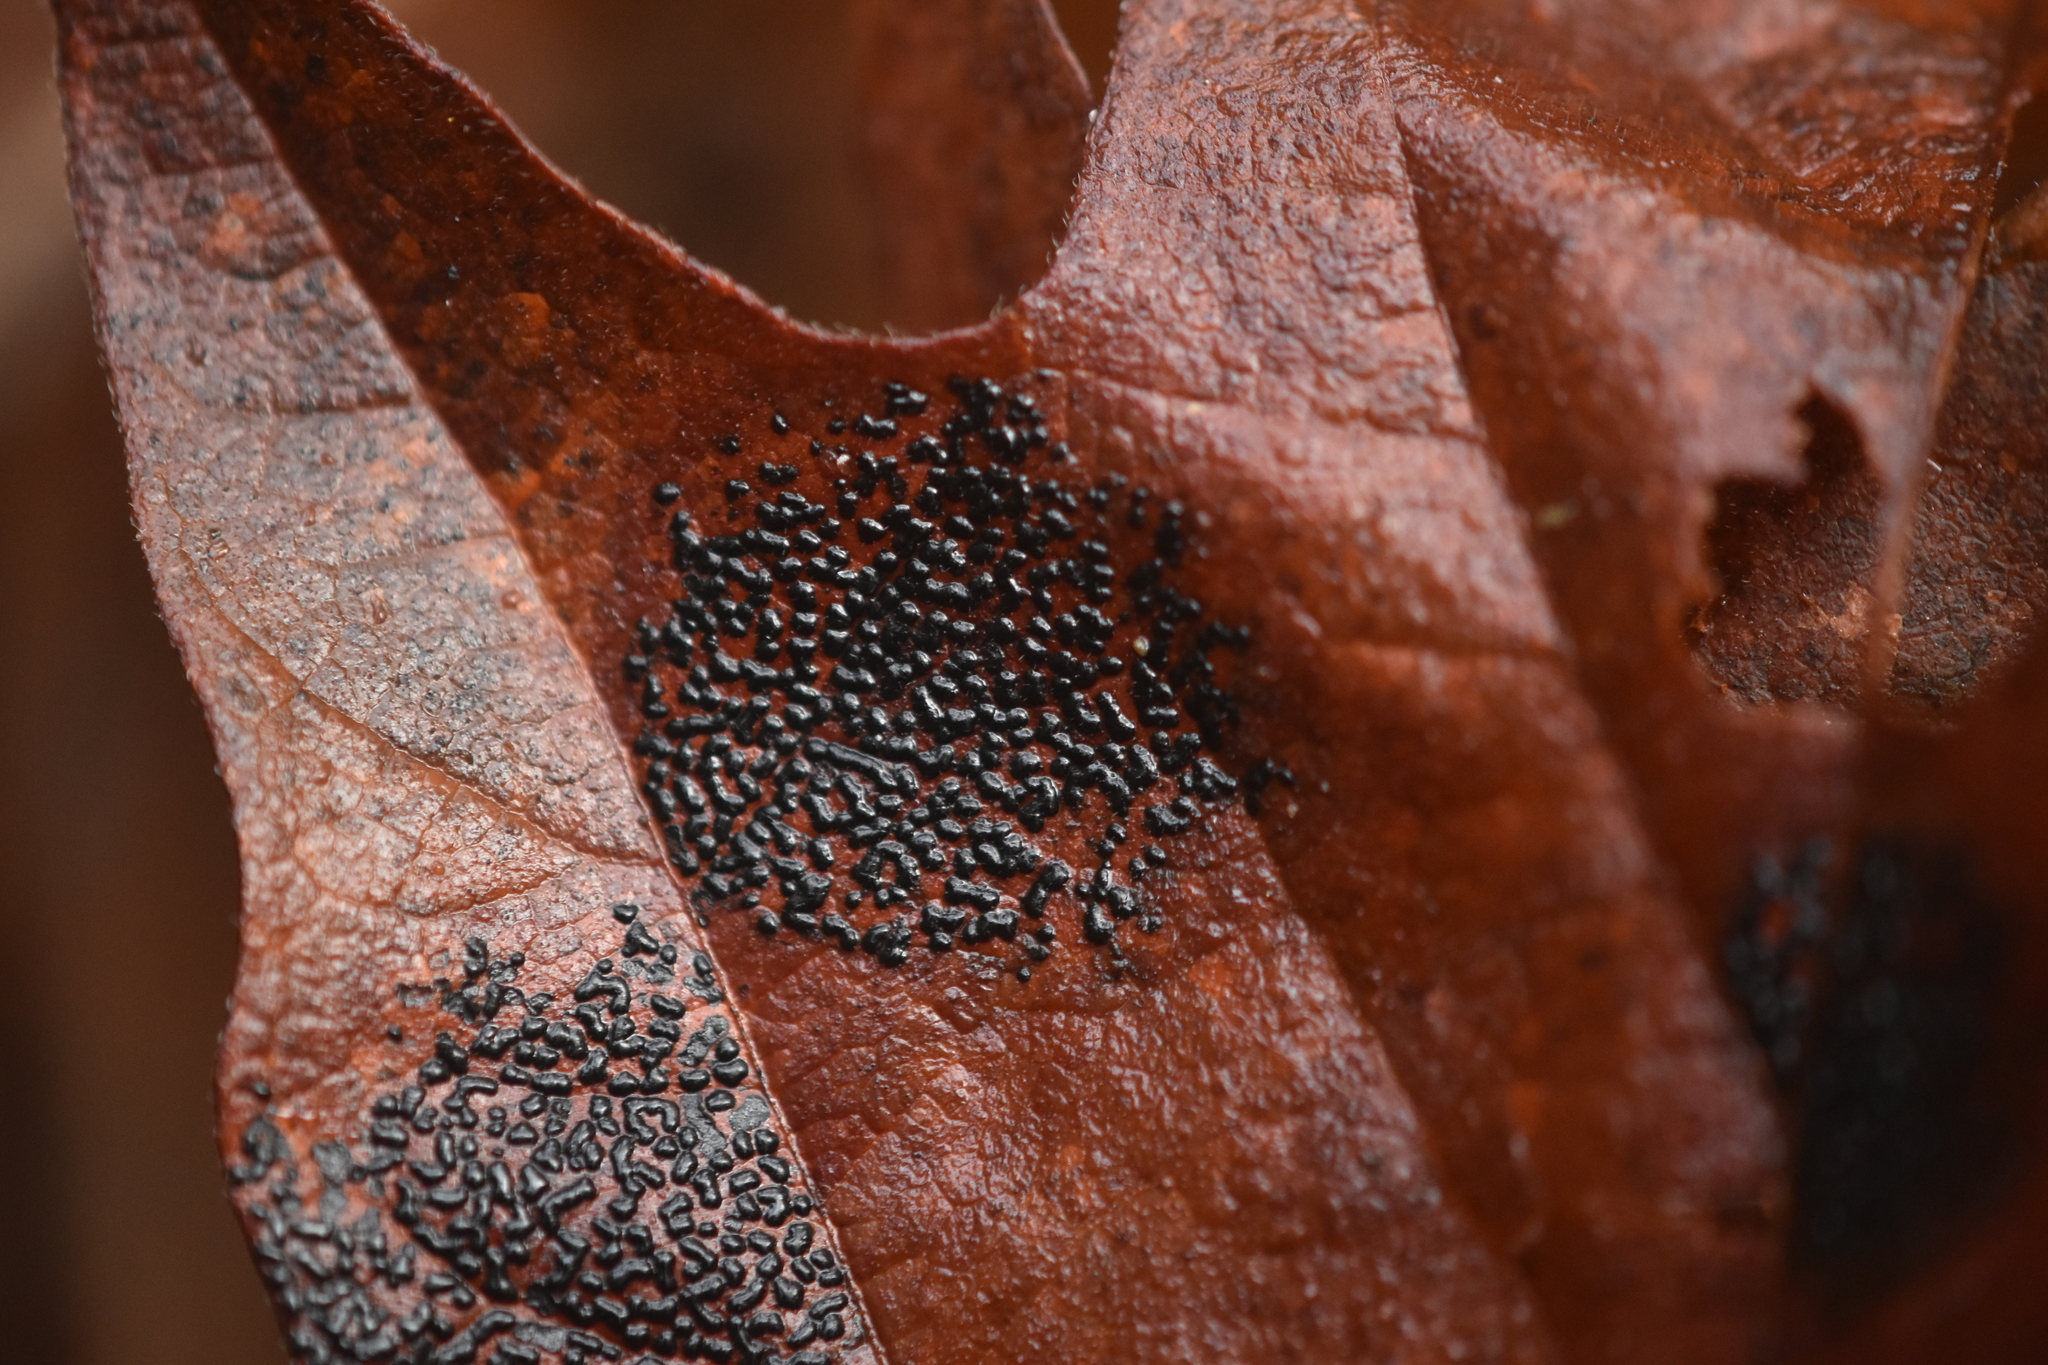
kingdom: Fungi
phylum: Ascomycota
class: Leotiomycetes
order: Rhytismatales
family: Rhytismataceae
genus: Rhytisma
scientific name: Rhytisma punctatum
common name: Speckled tar spot
